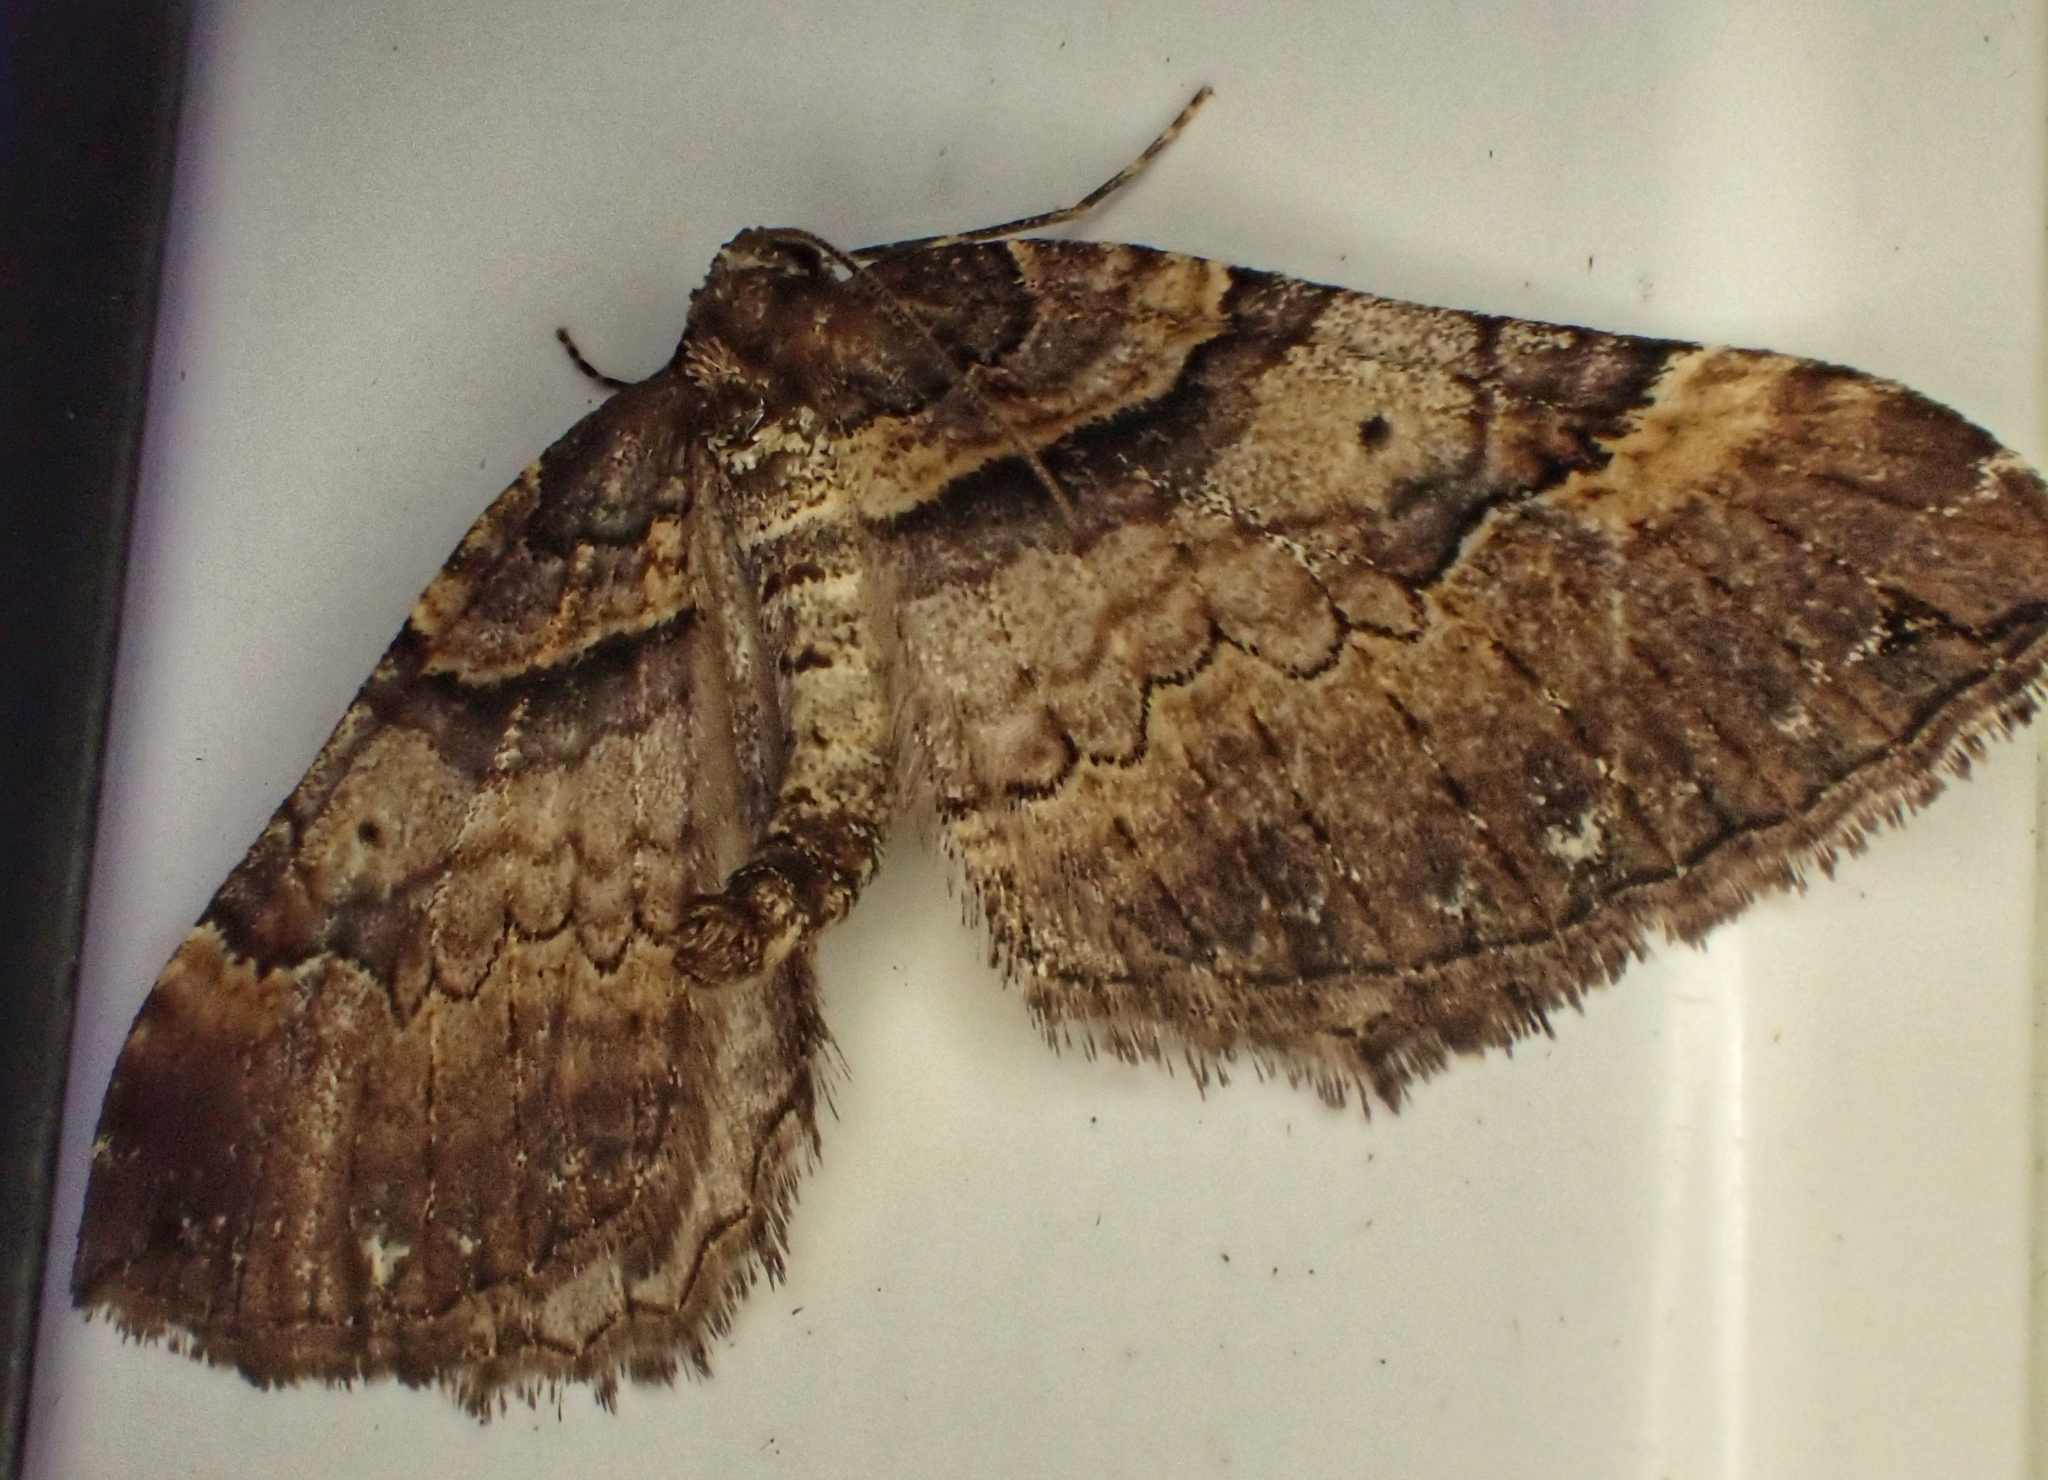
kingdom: Animalia
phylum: Arthropoda
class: Insecta
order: Lepidoptera
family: Geometridae
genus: Anticlea
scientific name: Anticlea badiata
